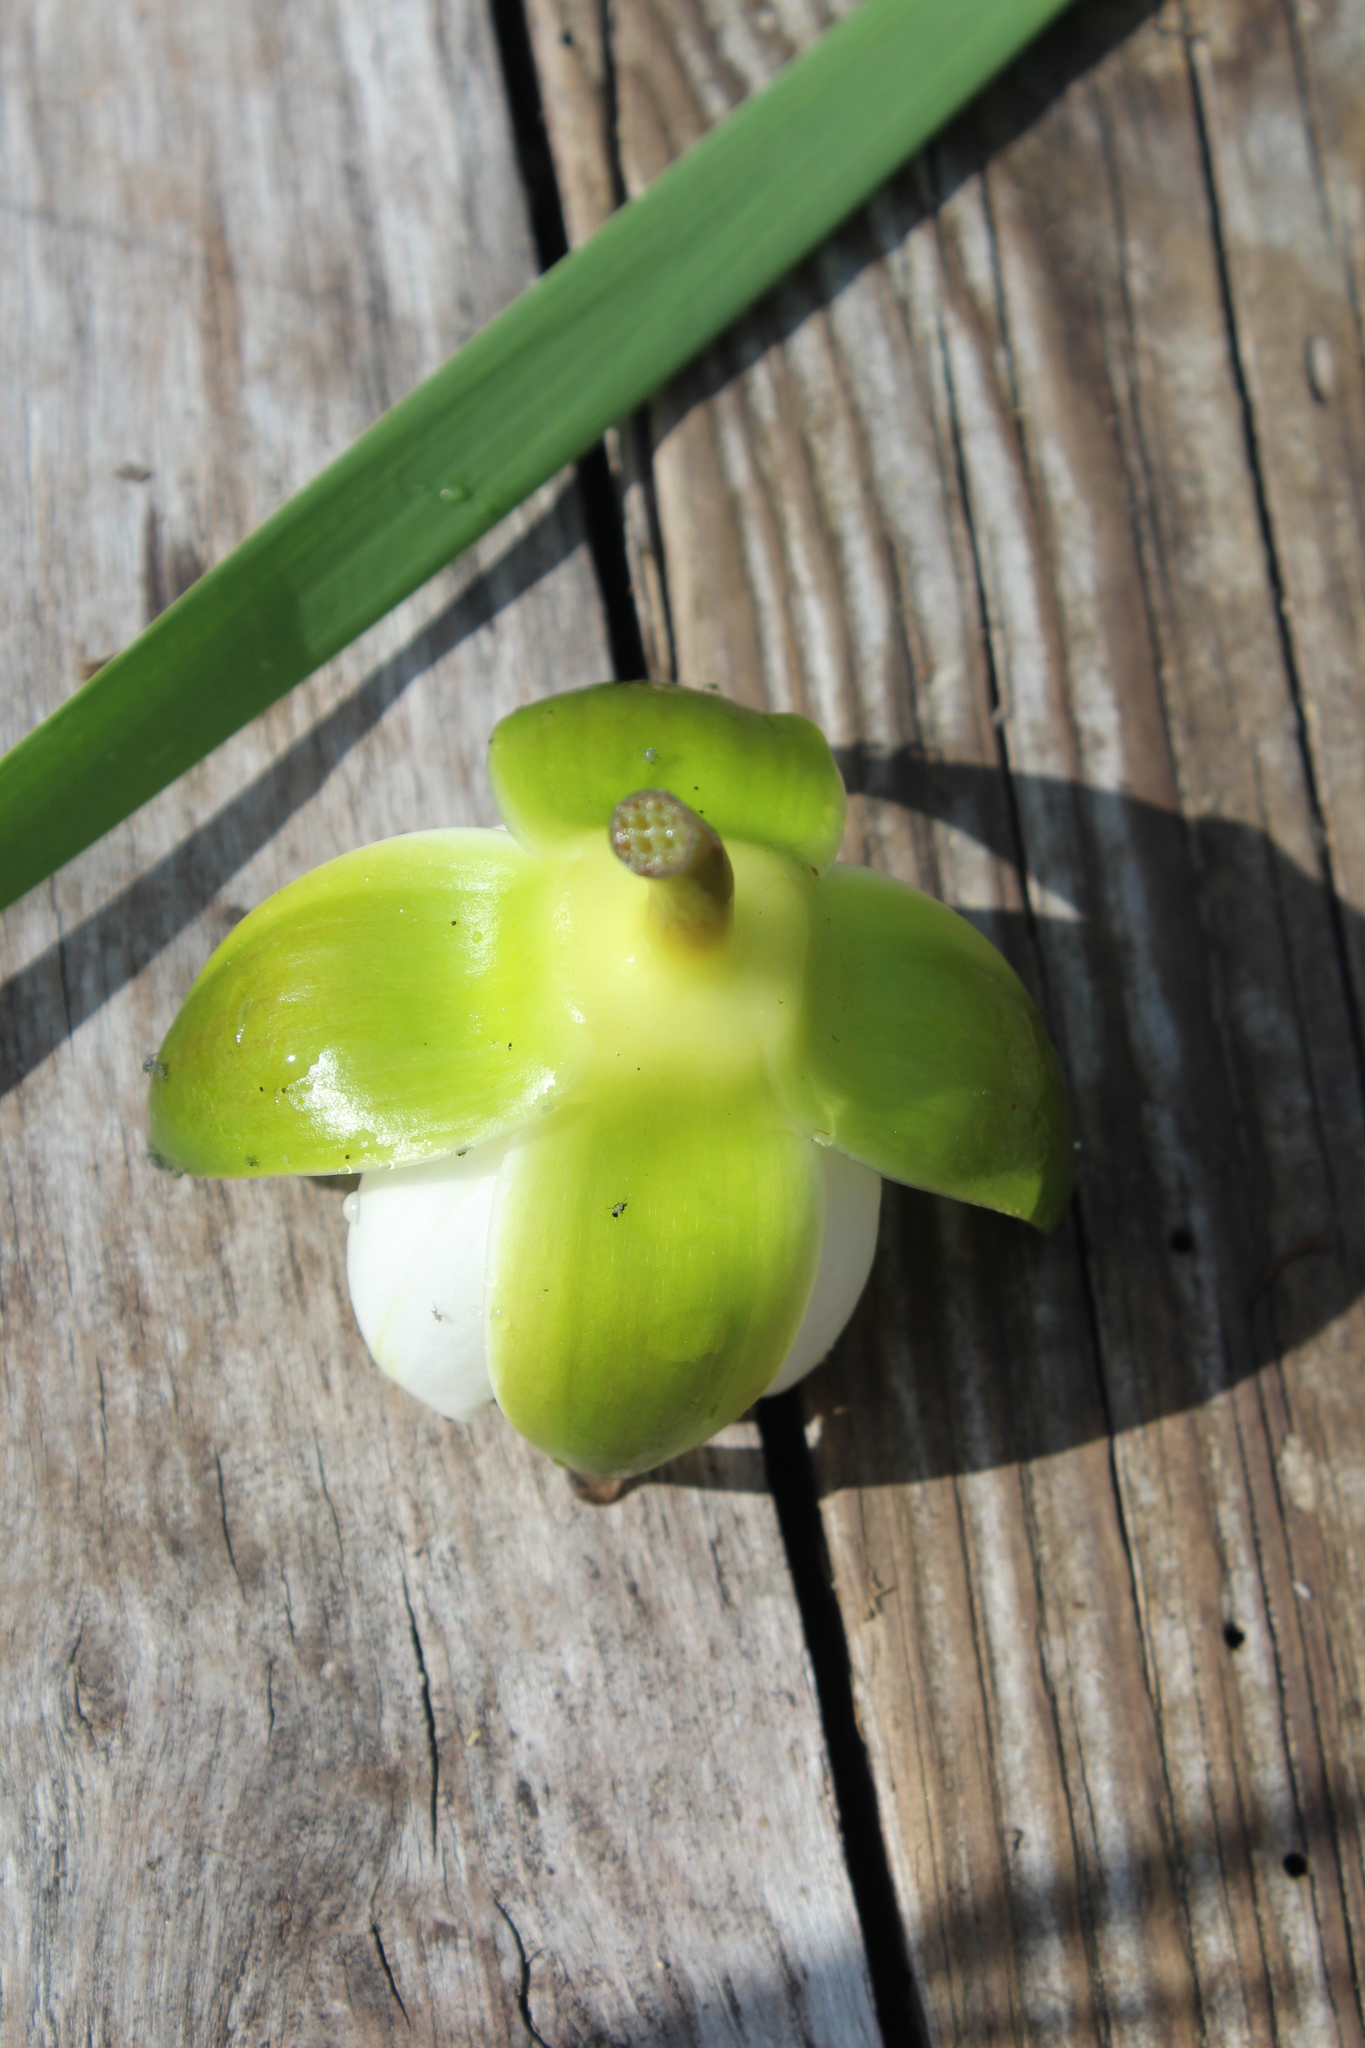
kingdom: Plantae
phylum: Tracheophyta
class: Magnoliopsida
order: Nymphaeales
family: Nymphaeaceae
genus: Nymphaea
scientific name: Nymphaea candida
